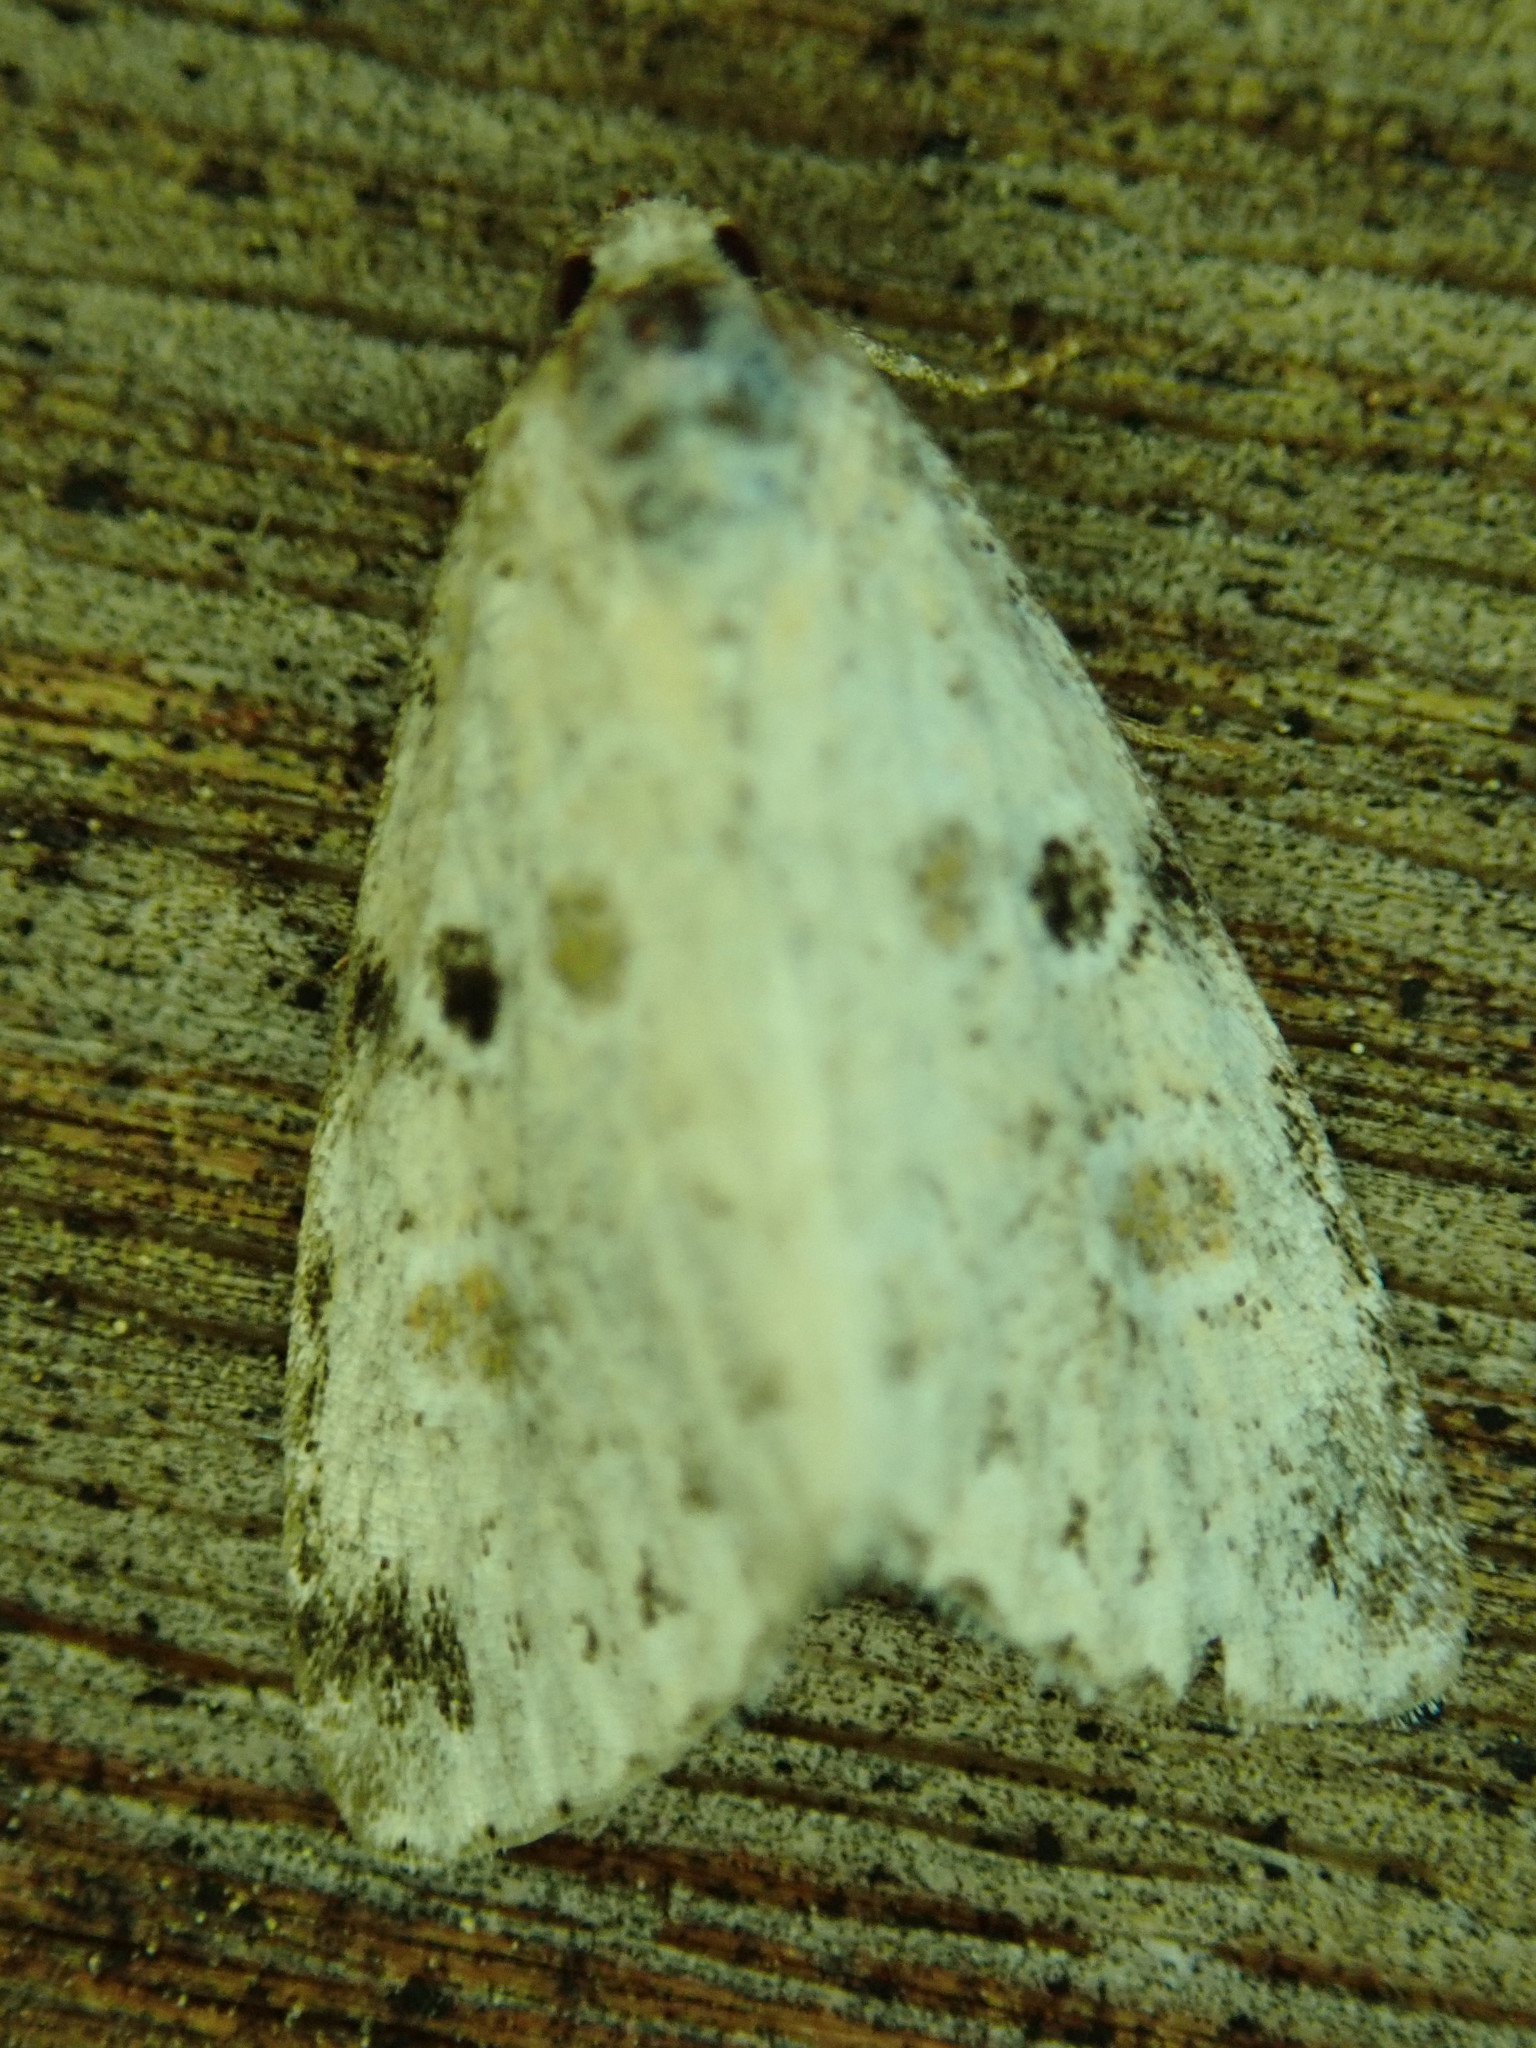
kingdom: Animalia
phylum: Arthropoda
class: Insecta
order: Lepidoptera
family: Noctuidae
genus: Maliattha
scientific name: Maliattha concinnimacula
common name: Red-spotted glyph
